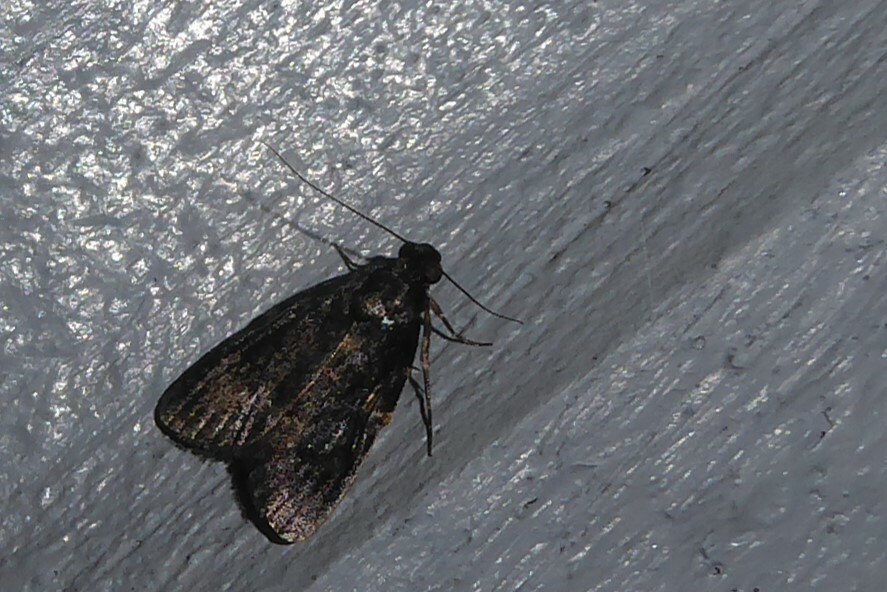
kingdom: Animalia
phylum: Arthropoda
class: Insecta
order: Lepidoptera
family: Pyralidae
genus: Stericta
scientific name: Stericta carbonalis
